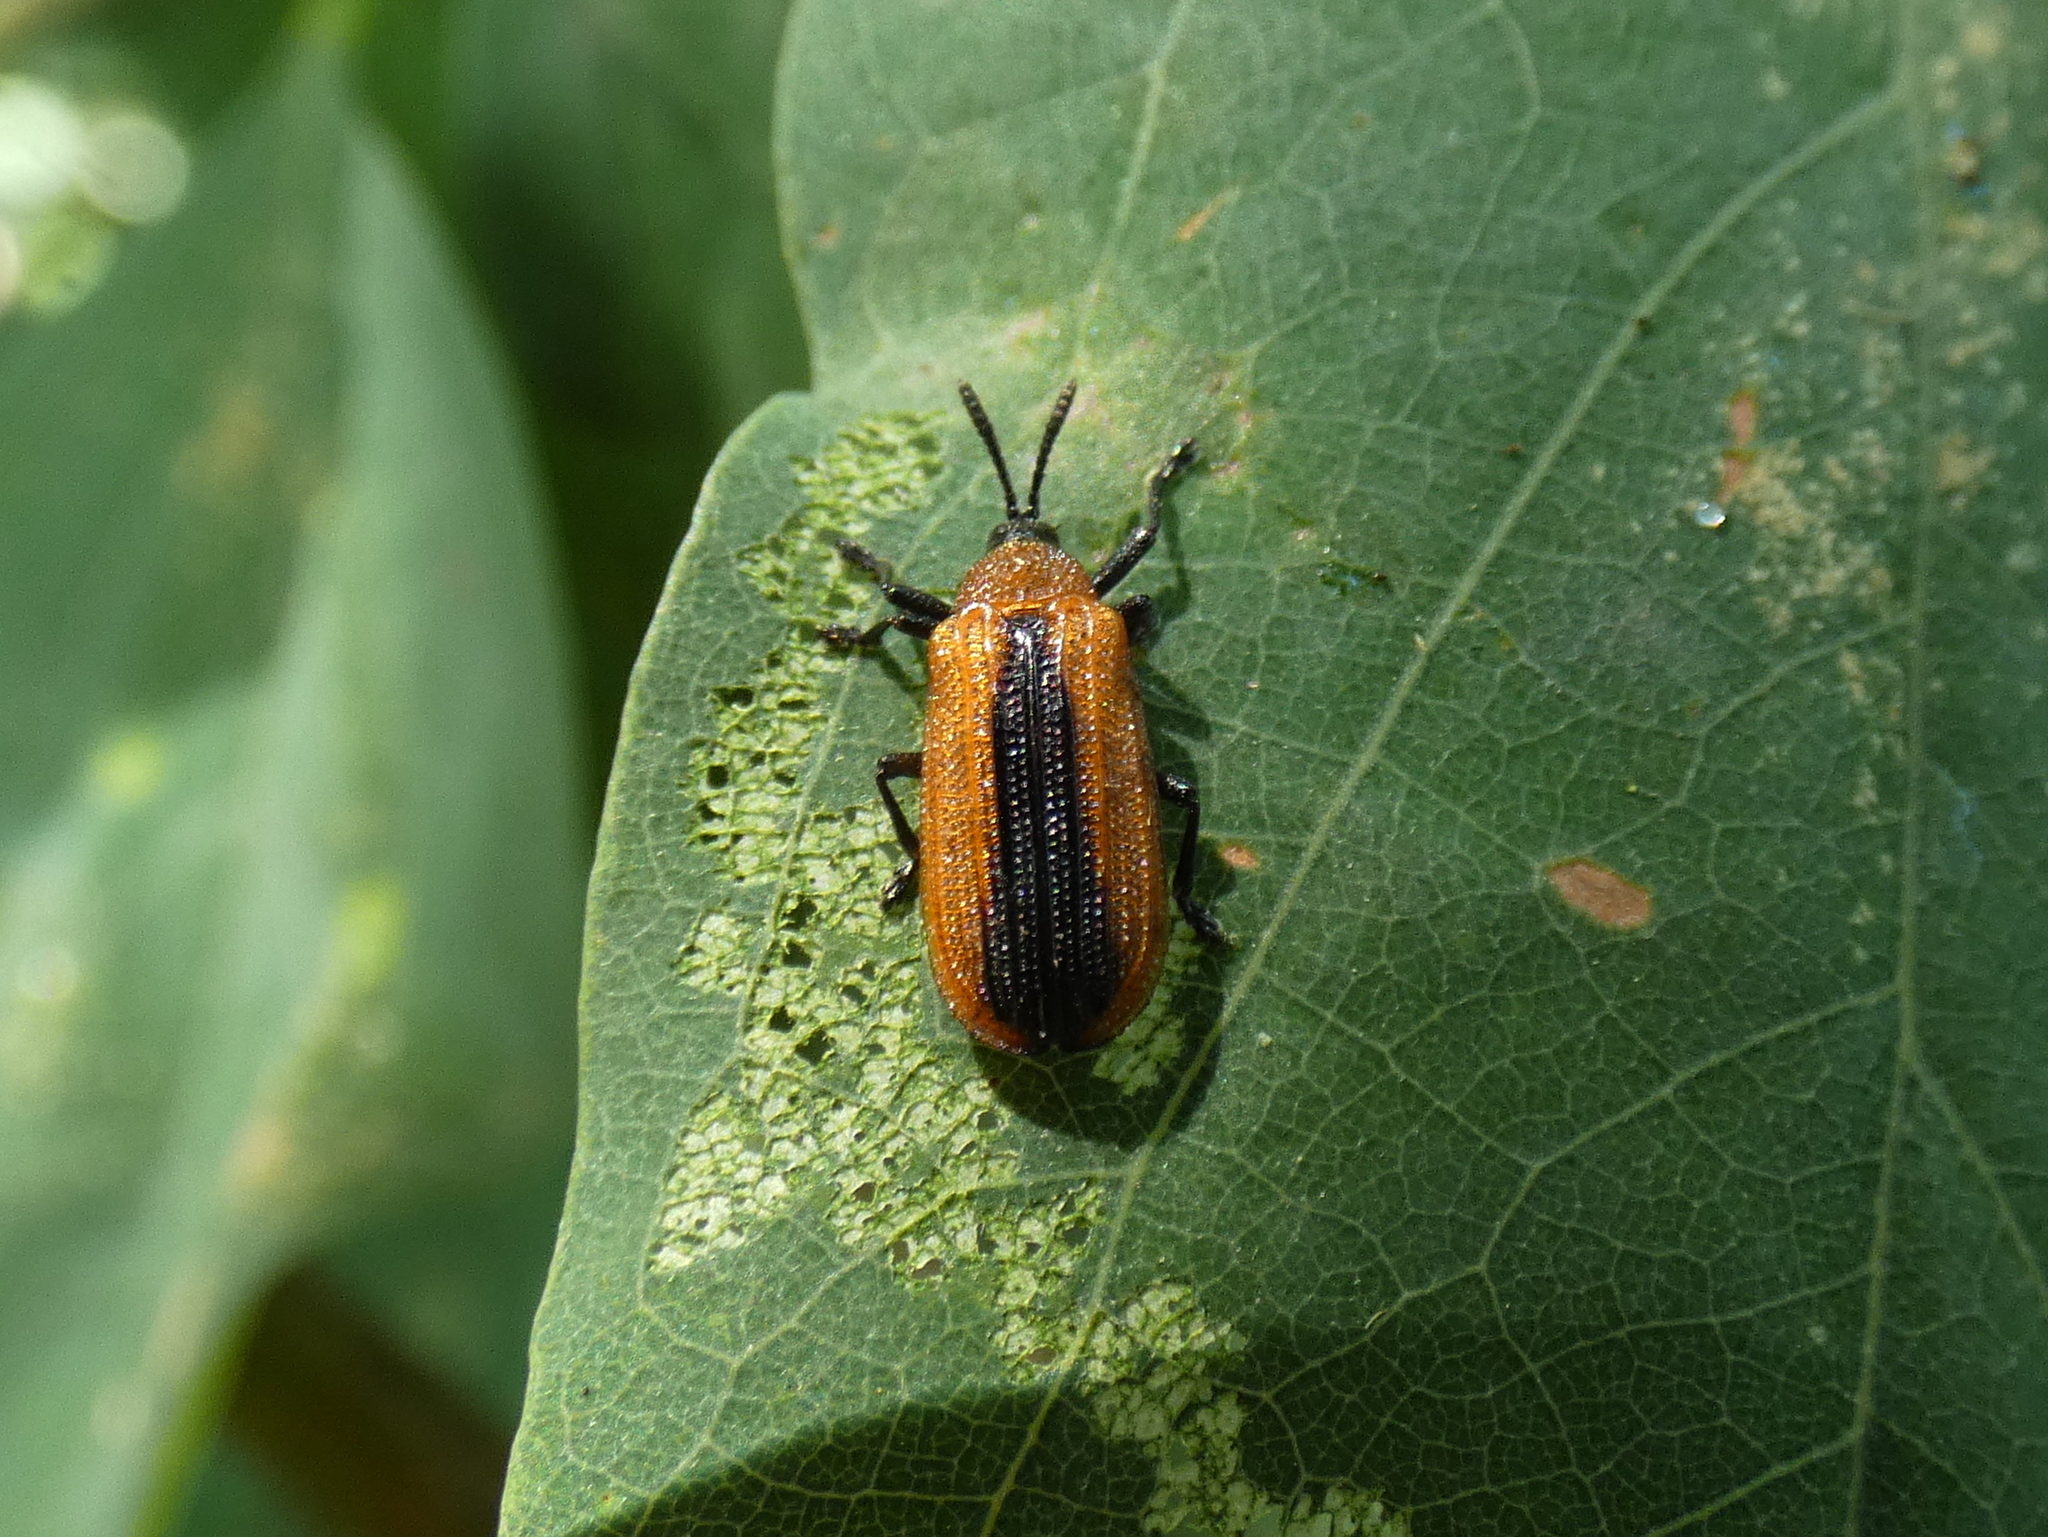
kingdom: Animalia
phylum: Arthropoda
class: Insecta
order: Coleoptera
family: Chrysomelidae
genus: Odontota
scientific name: Odontota dorsalis
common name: Locust leaf-miner beetle
